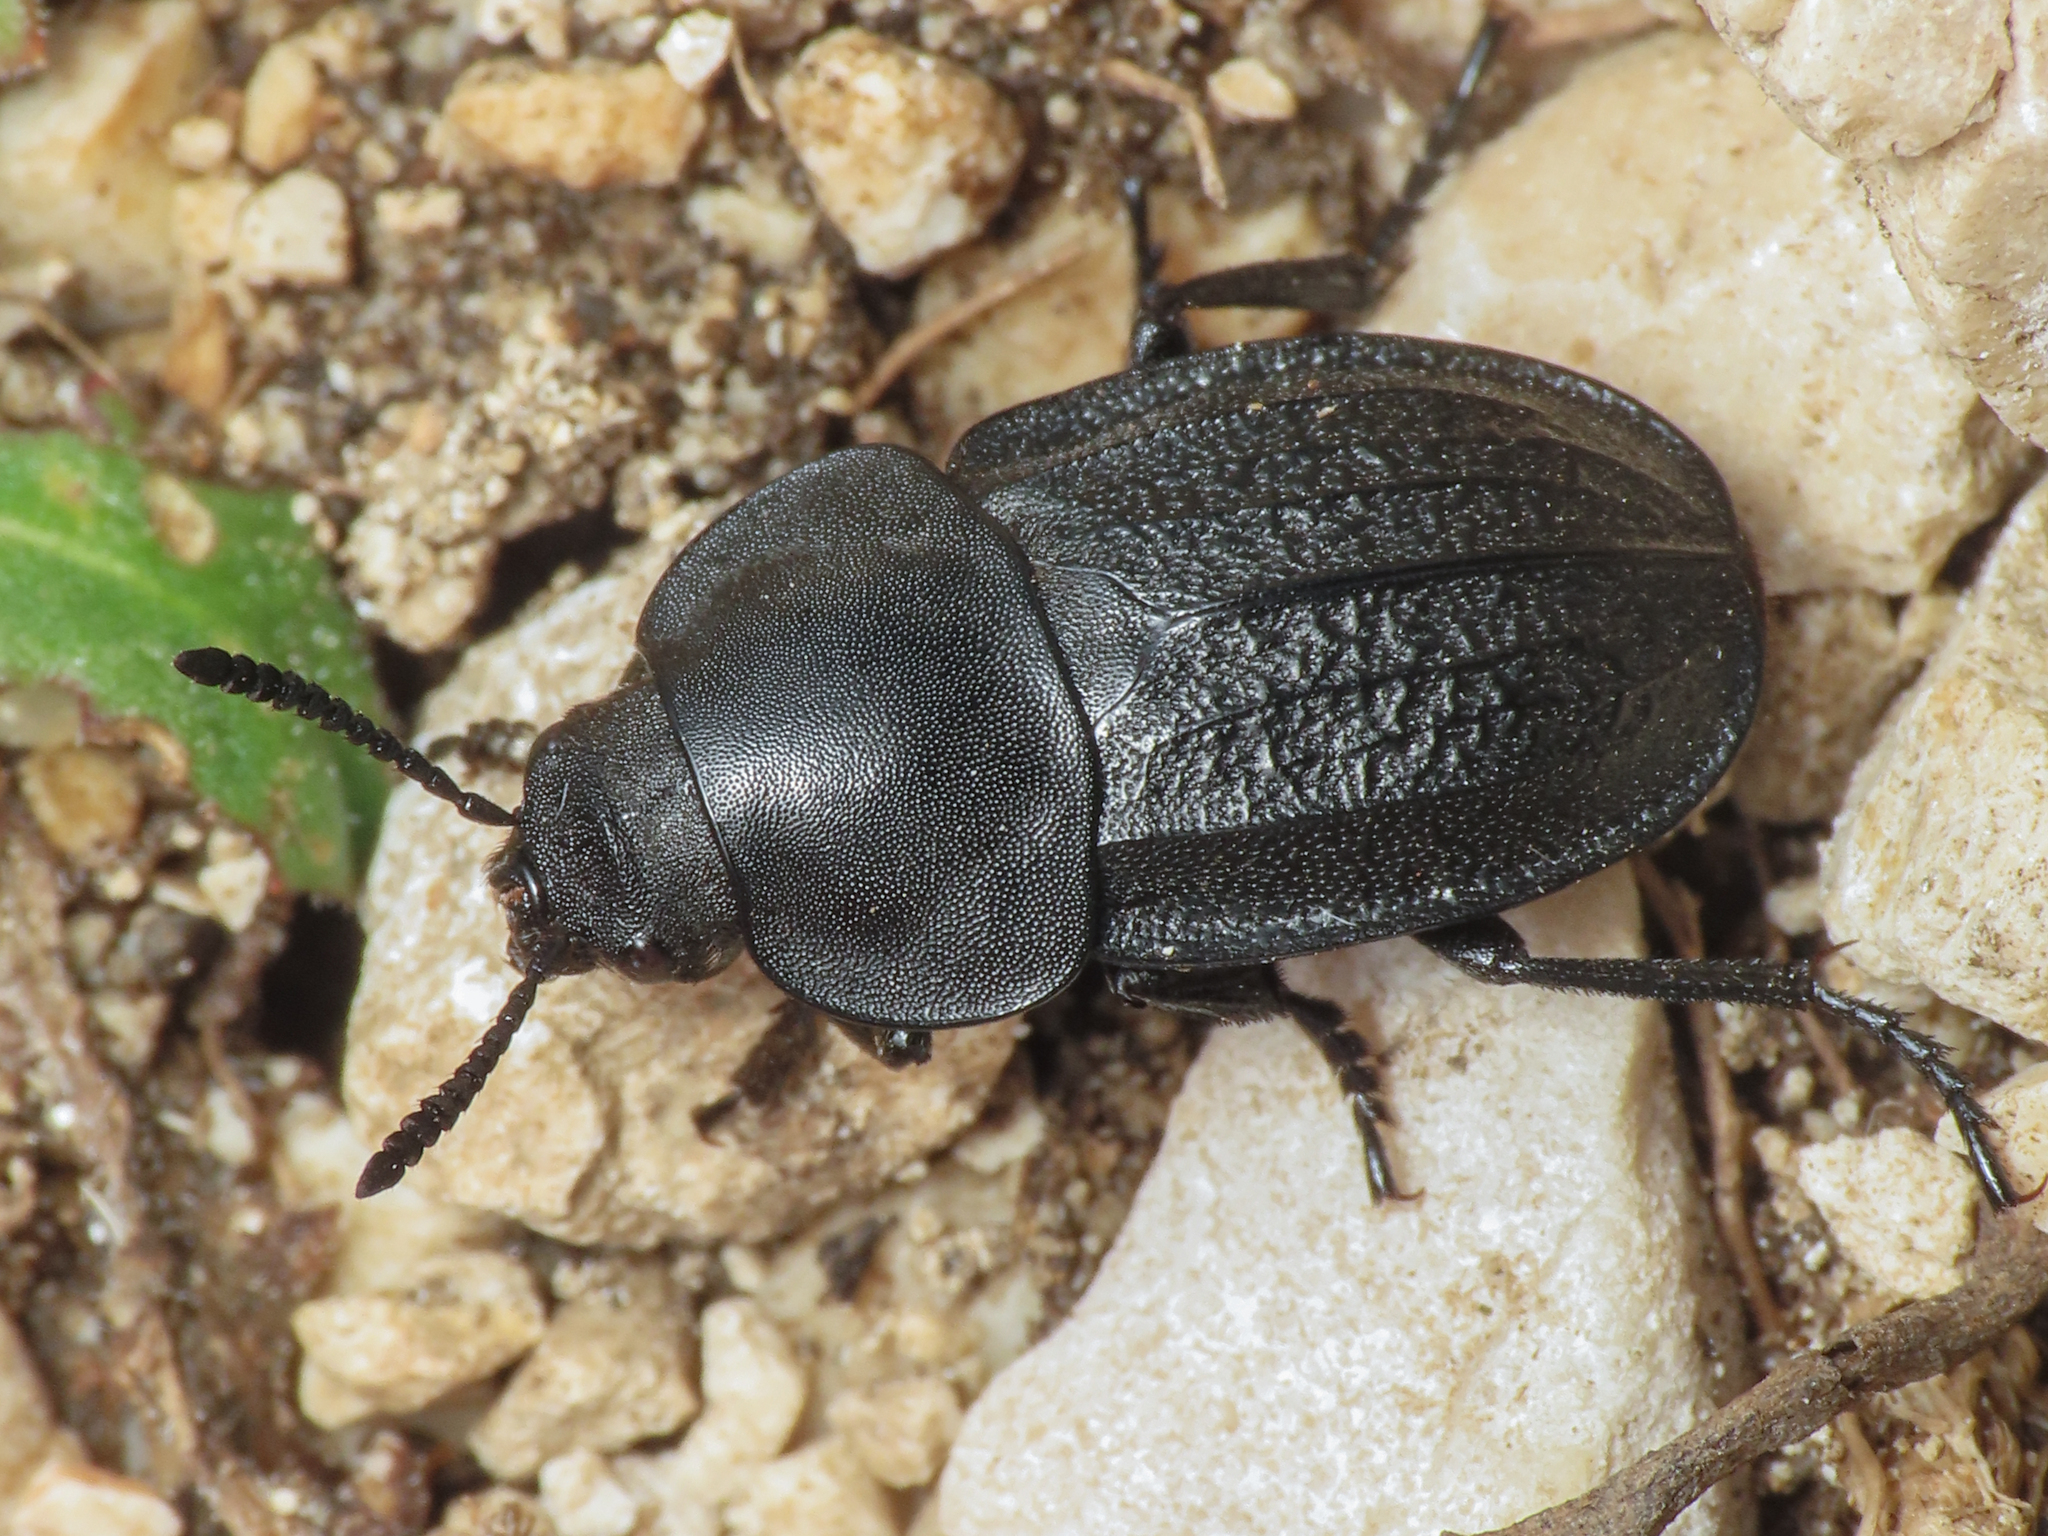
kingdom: Animalia
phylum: Arthropoda
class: Insecta
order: Coleoptera
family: Staphylinidae
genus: Aclypea
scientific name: Aclypea undata
